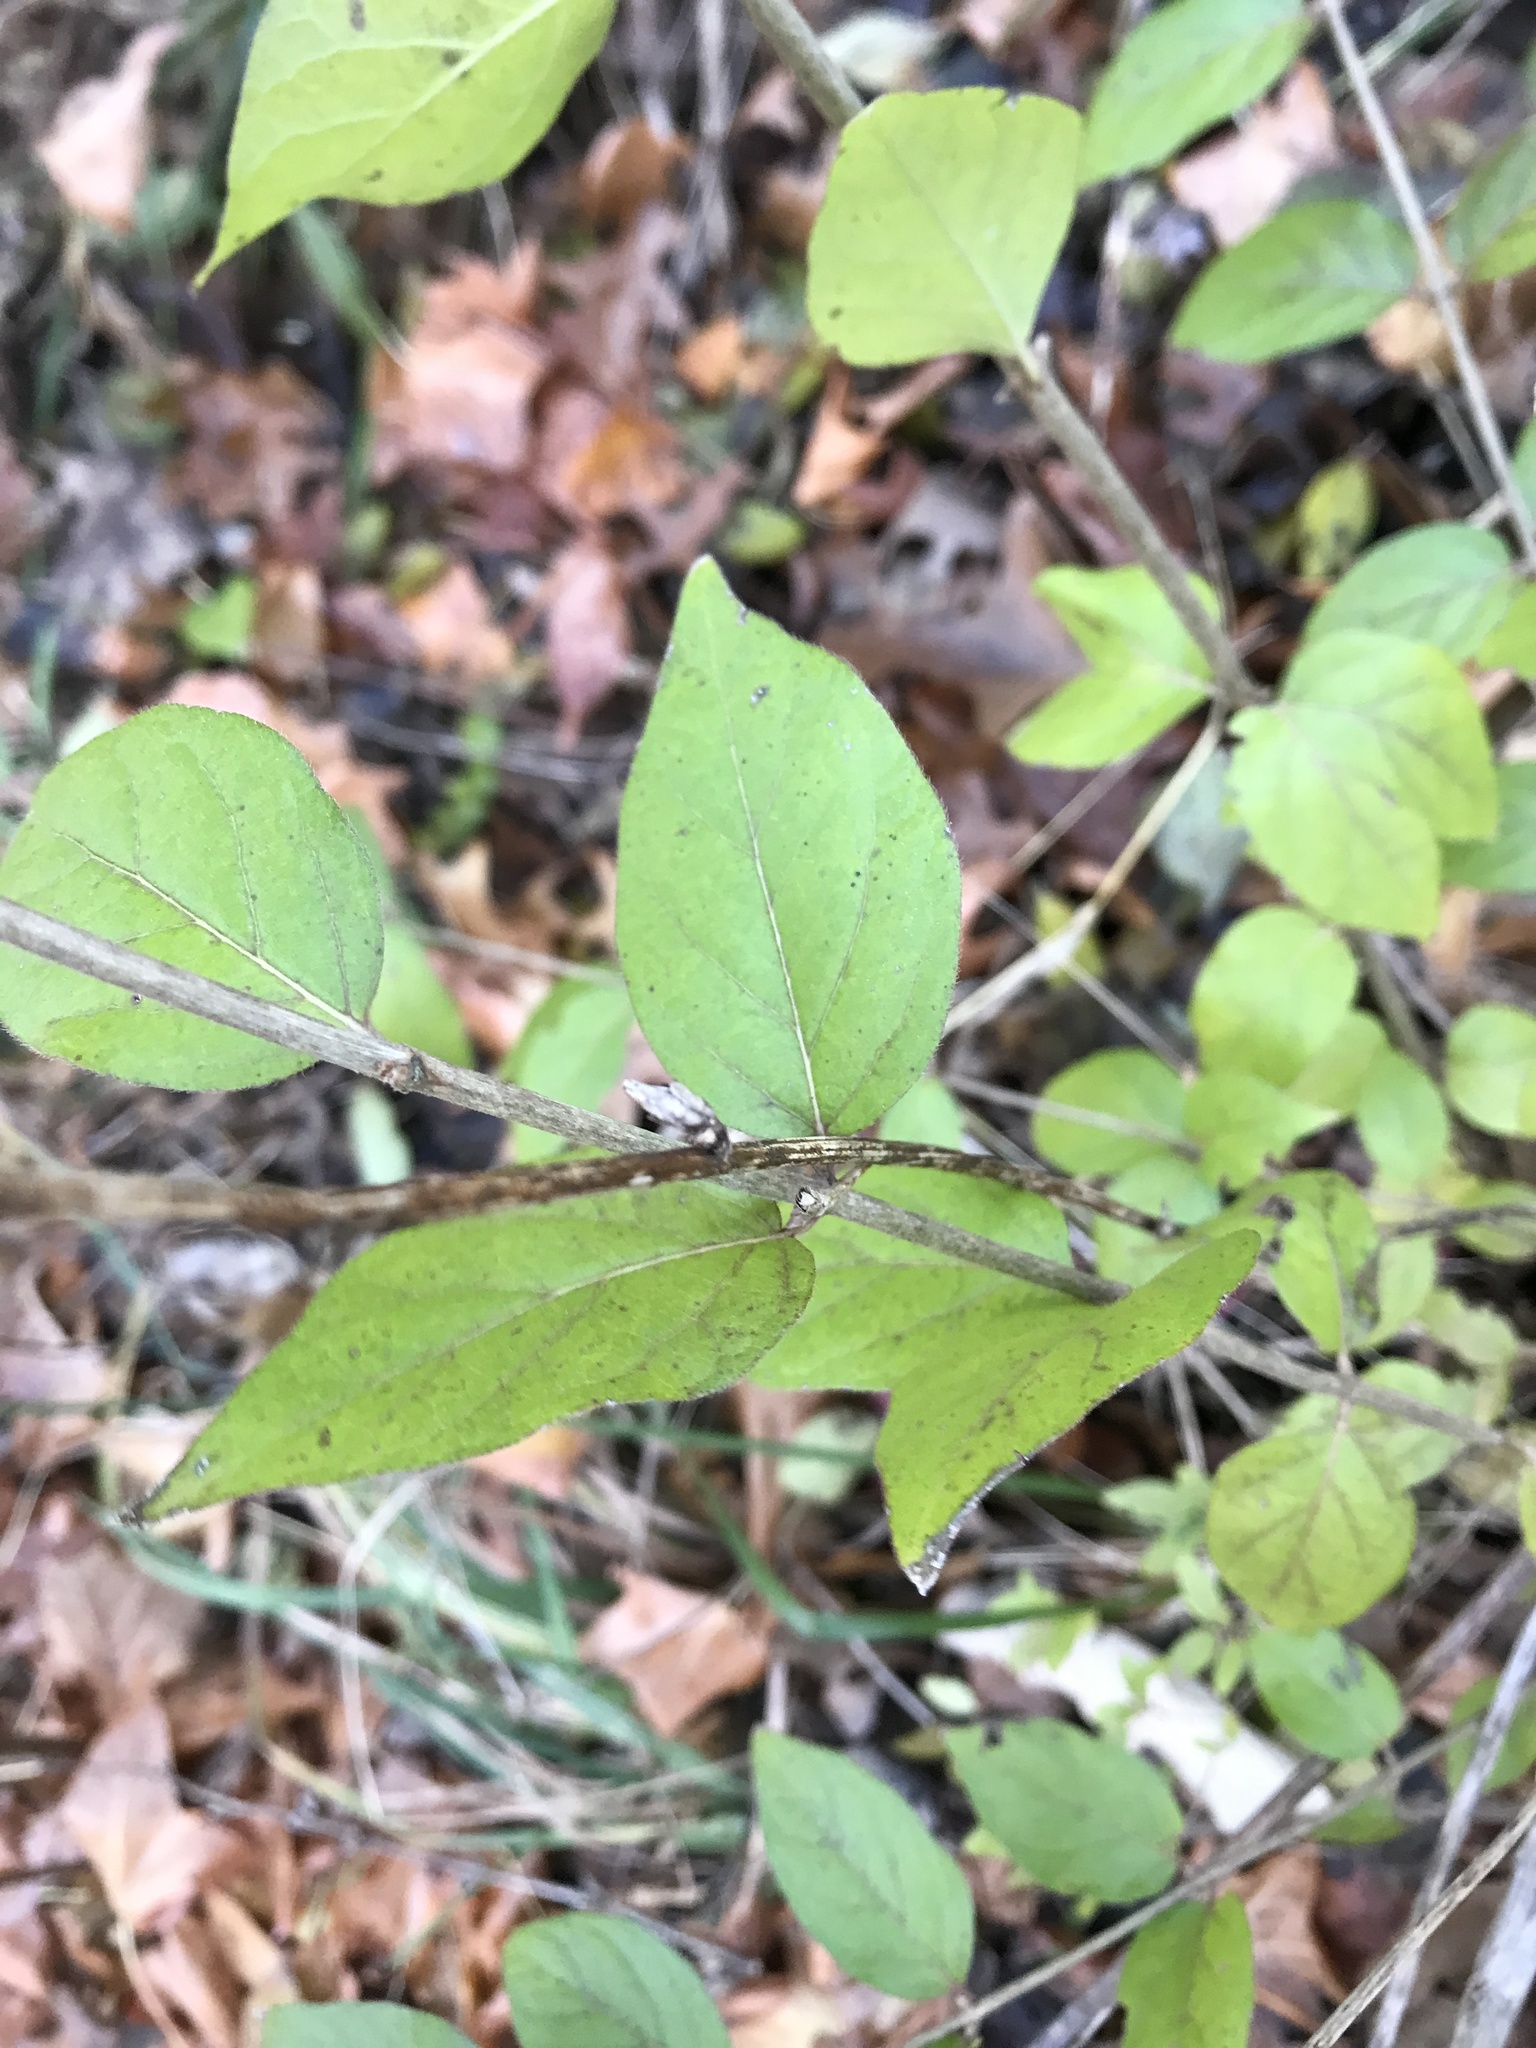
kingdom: Plantae
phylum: Tracheophyta
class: Magnoliopsida
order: Dipsacales
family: Caprifoliaceae
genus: Lonicera
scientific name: Lonicera maackii
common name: Amur honeysuckle
